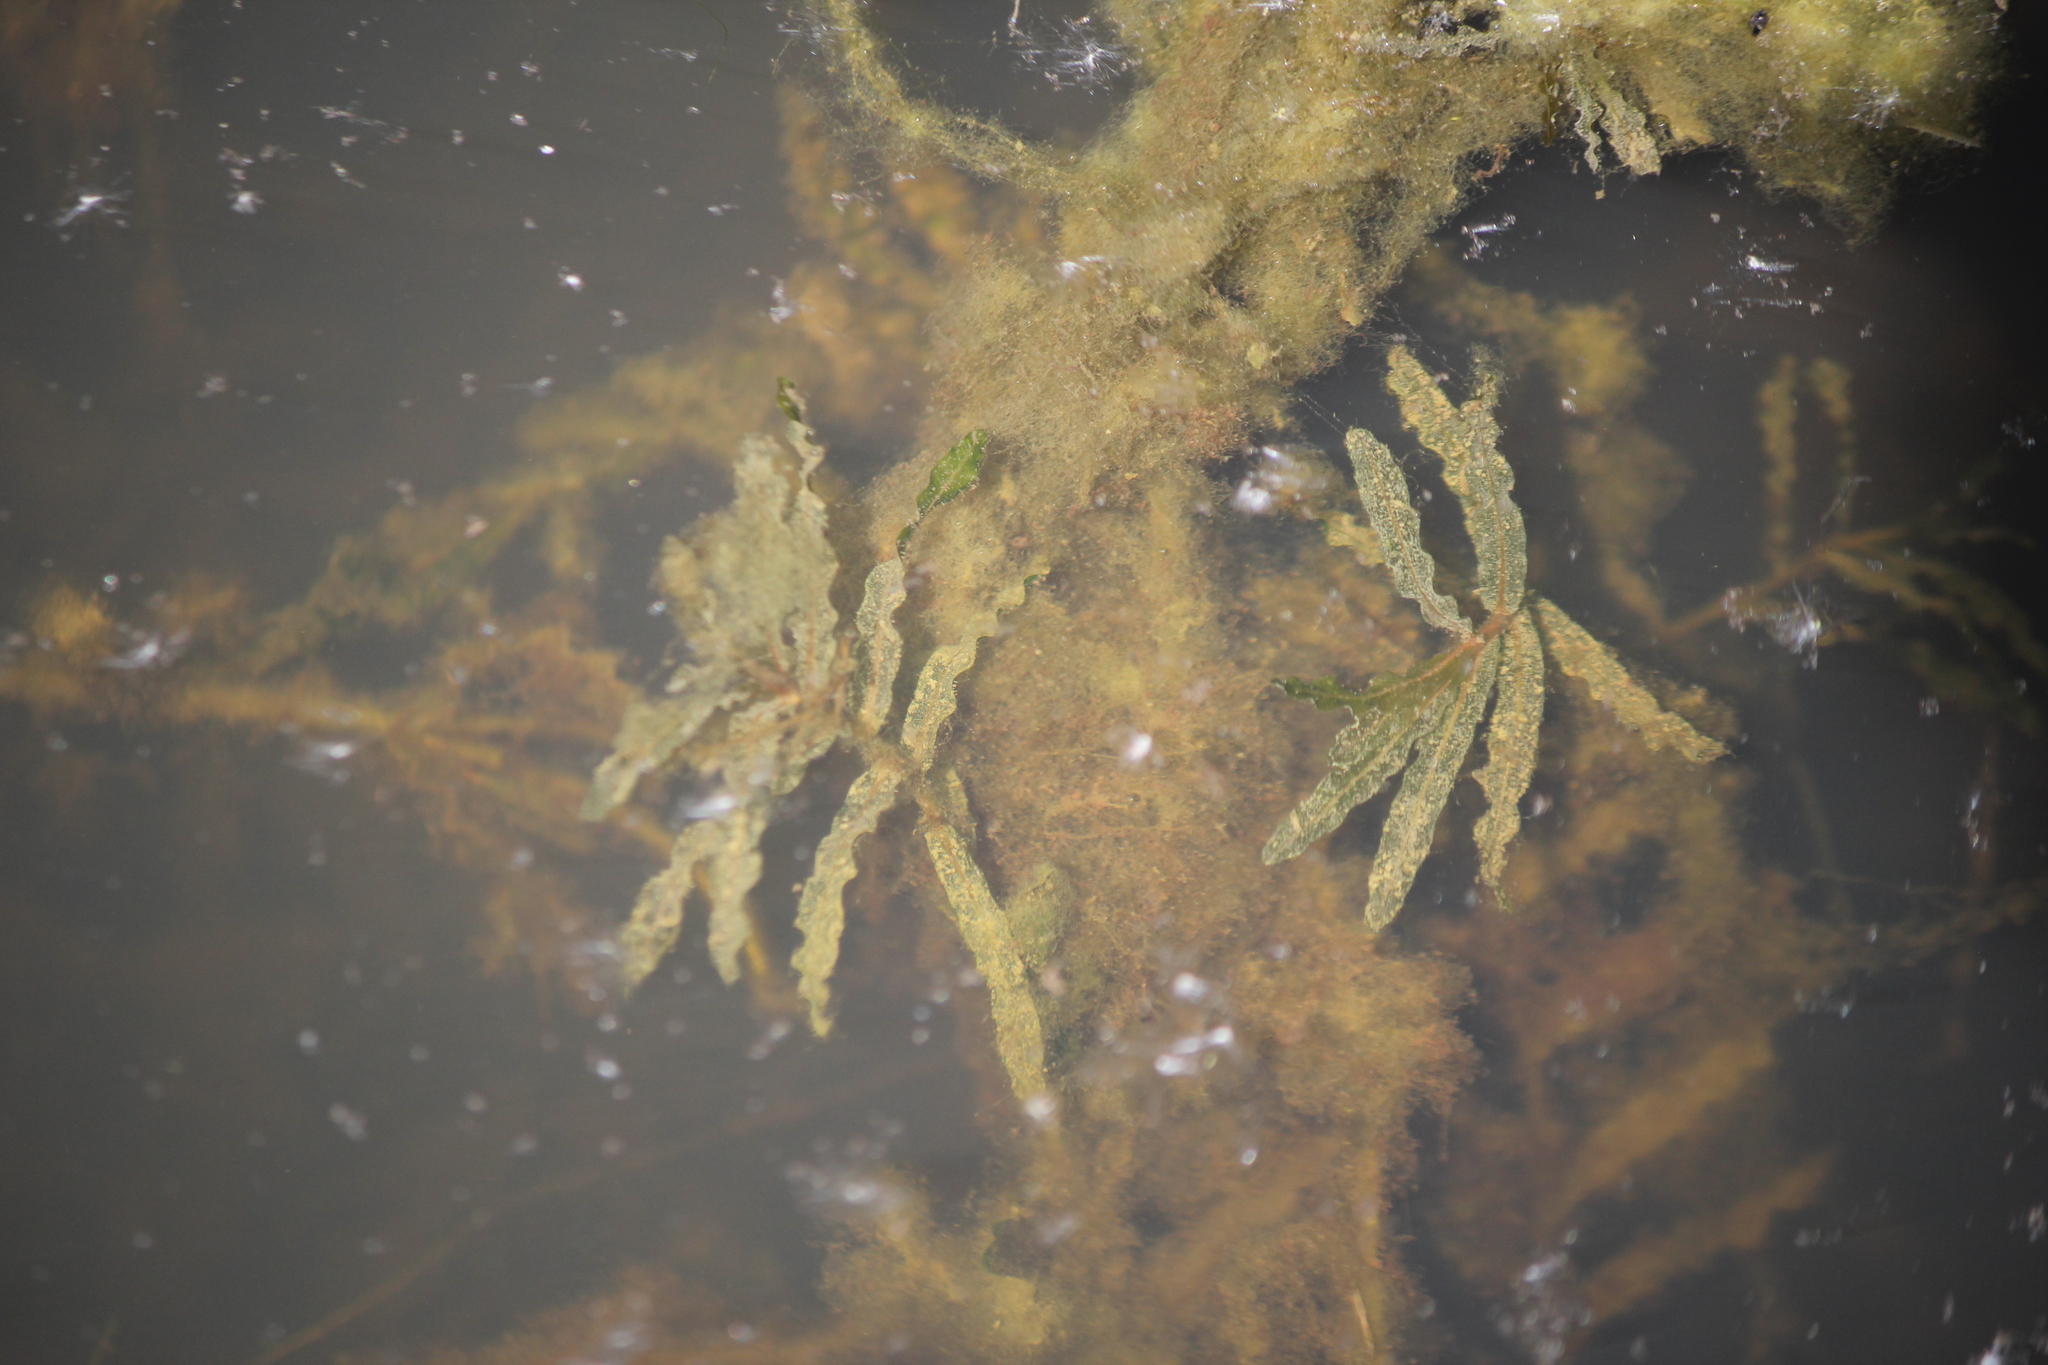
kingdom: Plantae
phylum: Tracheophyta
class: Liliopsida
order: Alismatales
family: Potamogetonaceae
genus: Potamogeton
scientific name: Potamogeton crispus
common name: Curled pondweed
